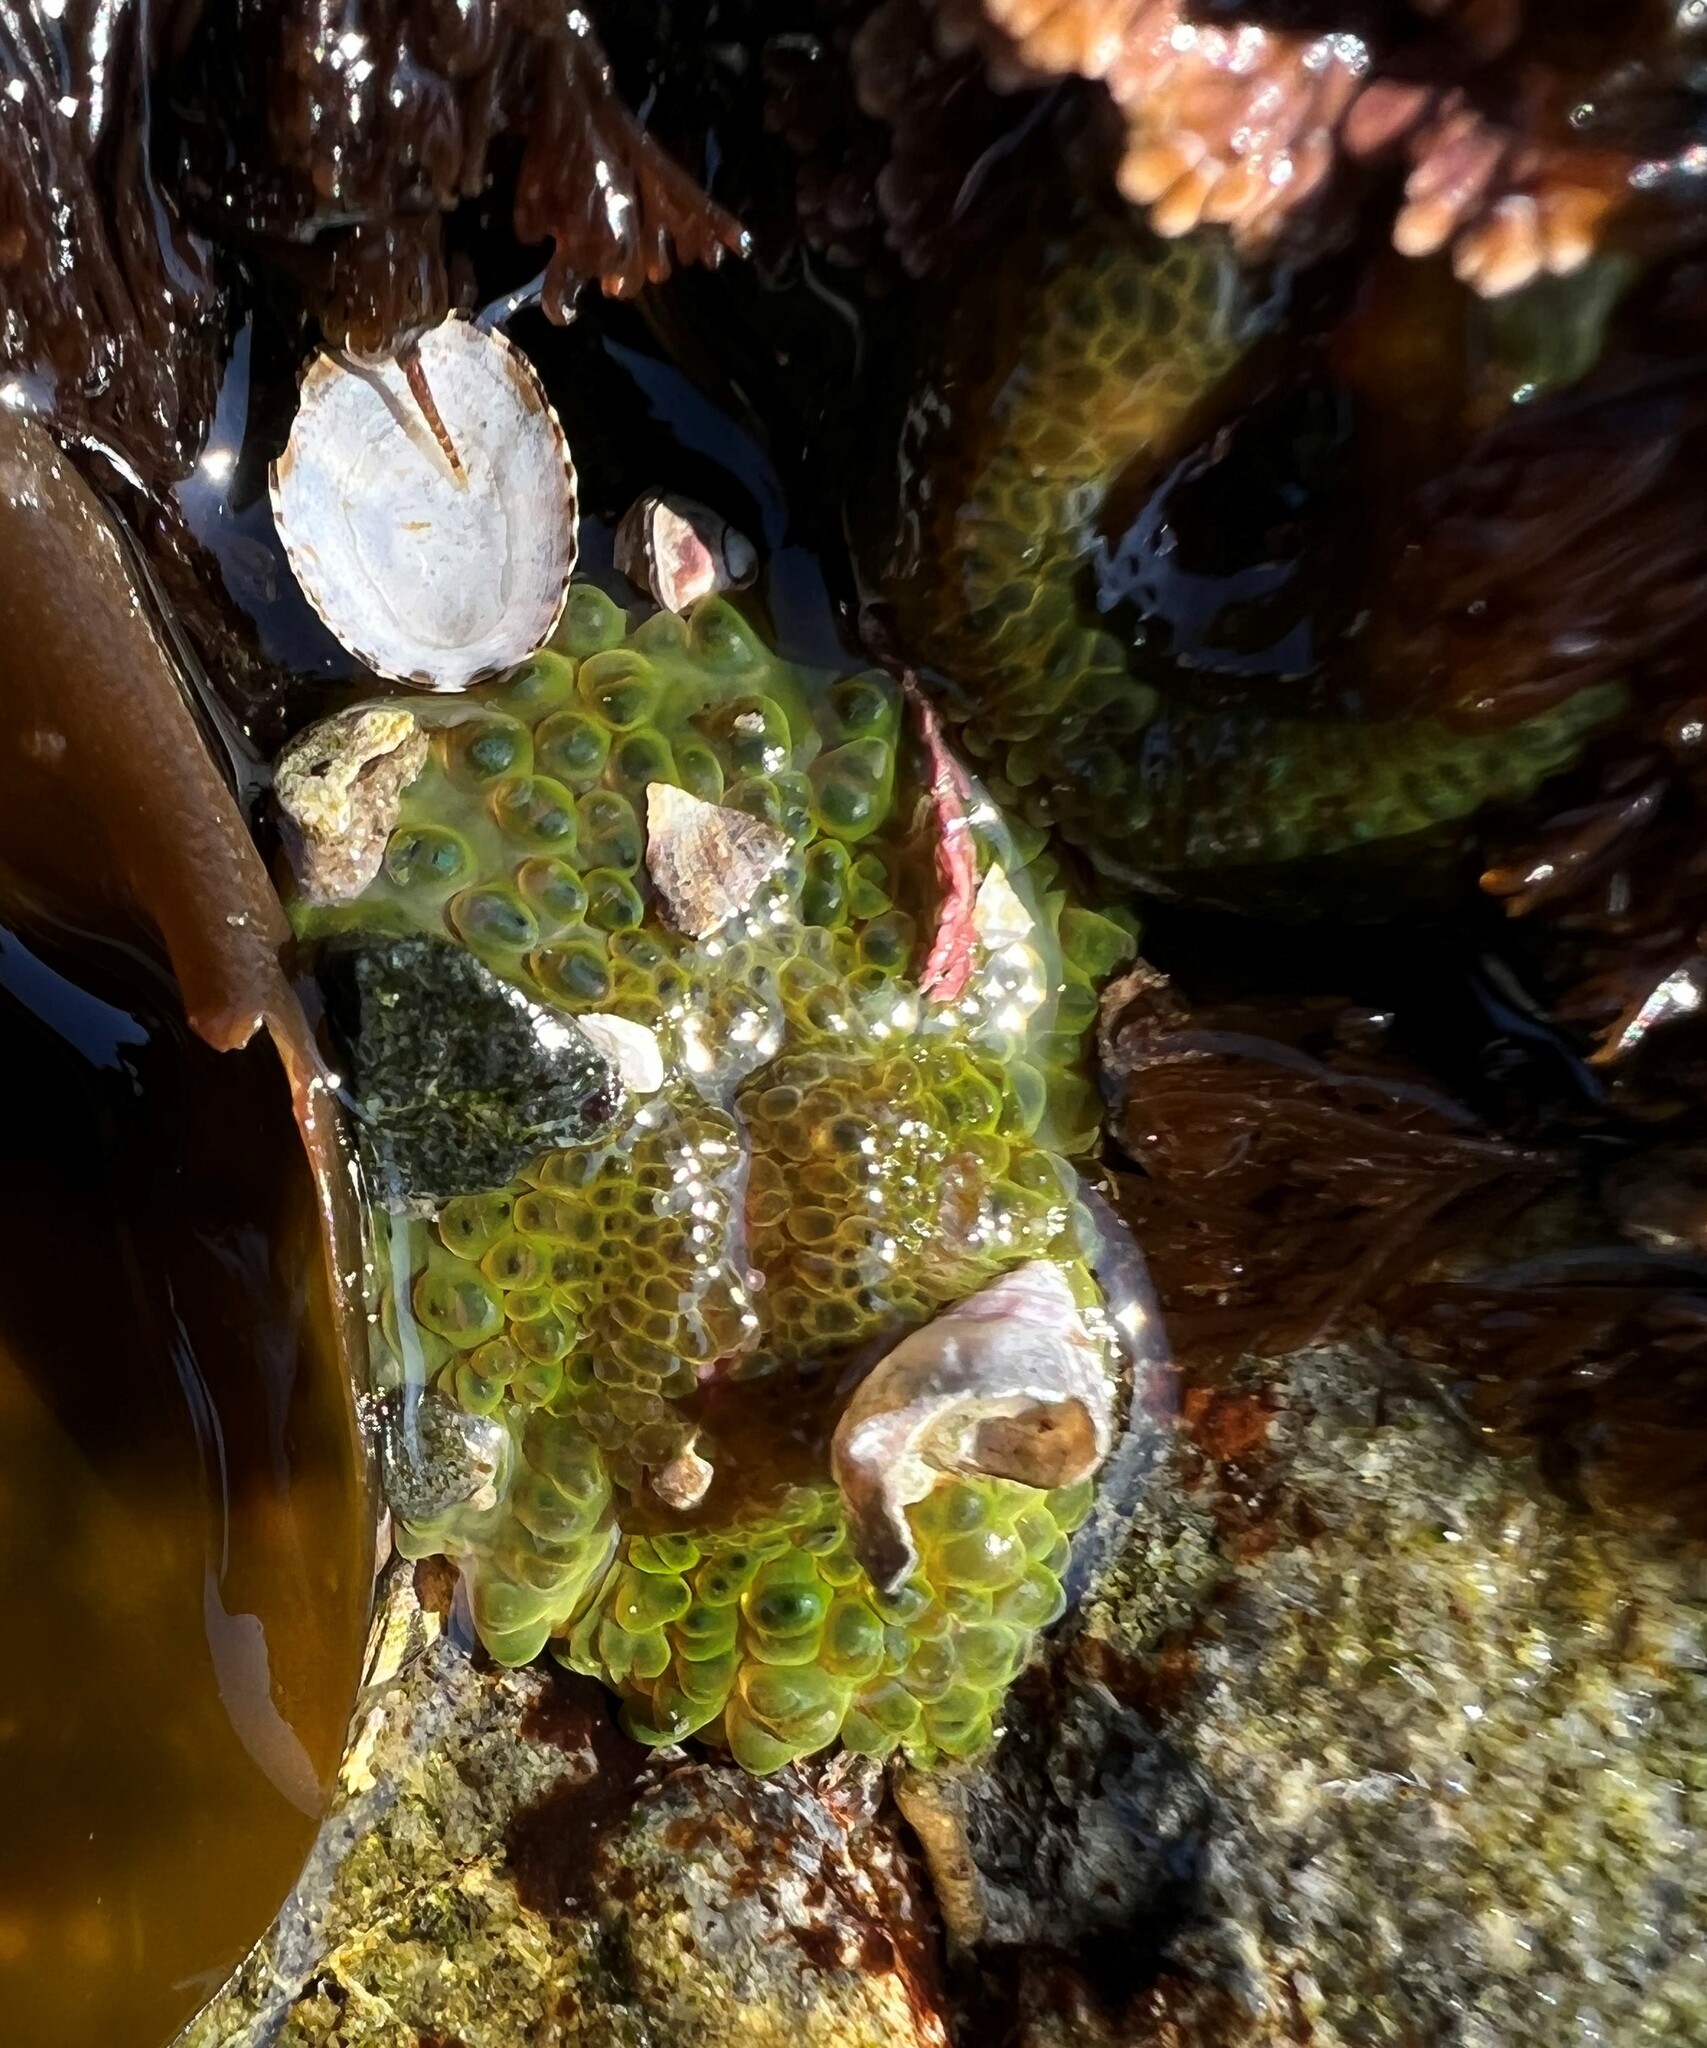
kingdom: Animalia
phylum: Cnidaria
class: Anthozoa
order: Actiniaria
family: Actiniidae
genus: Anthopleura
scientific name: Anthopleura elegantissima
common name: Clonal anemone
